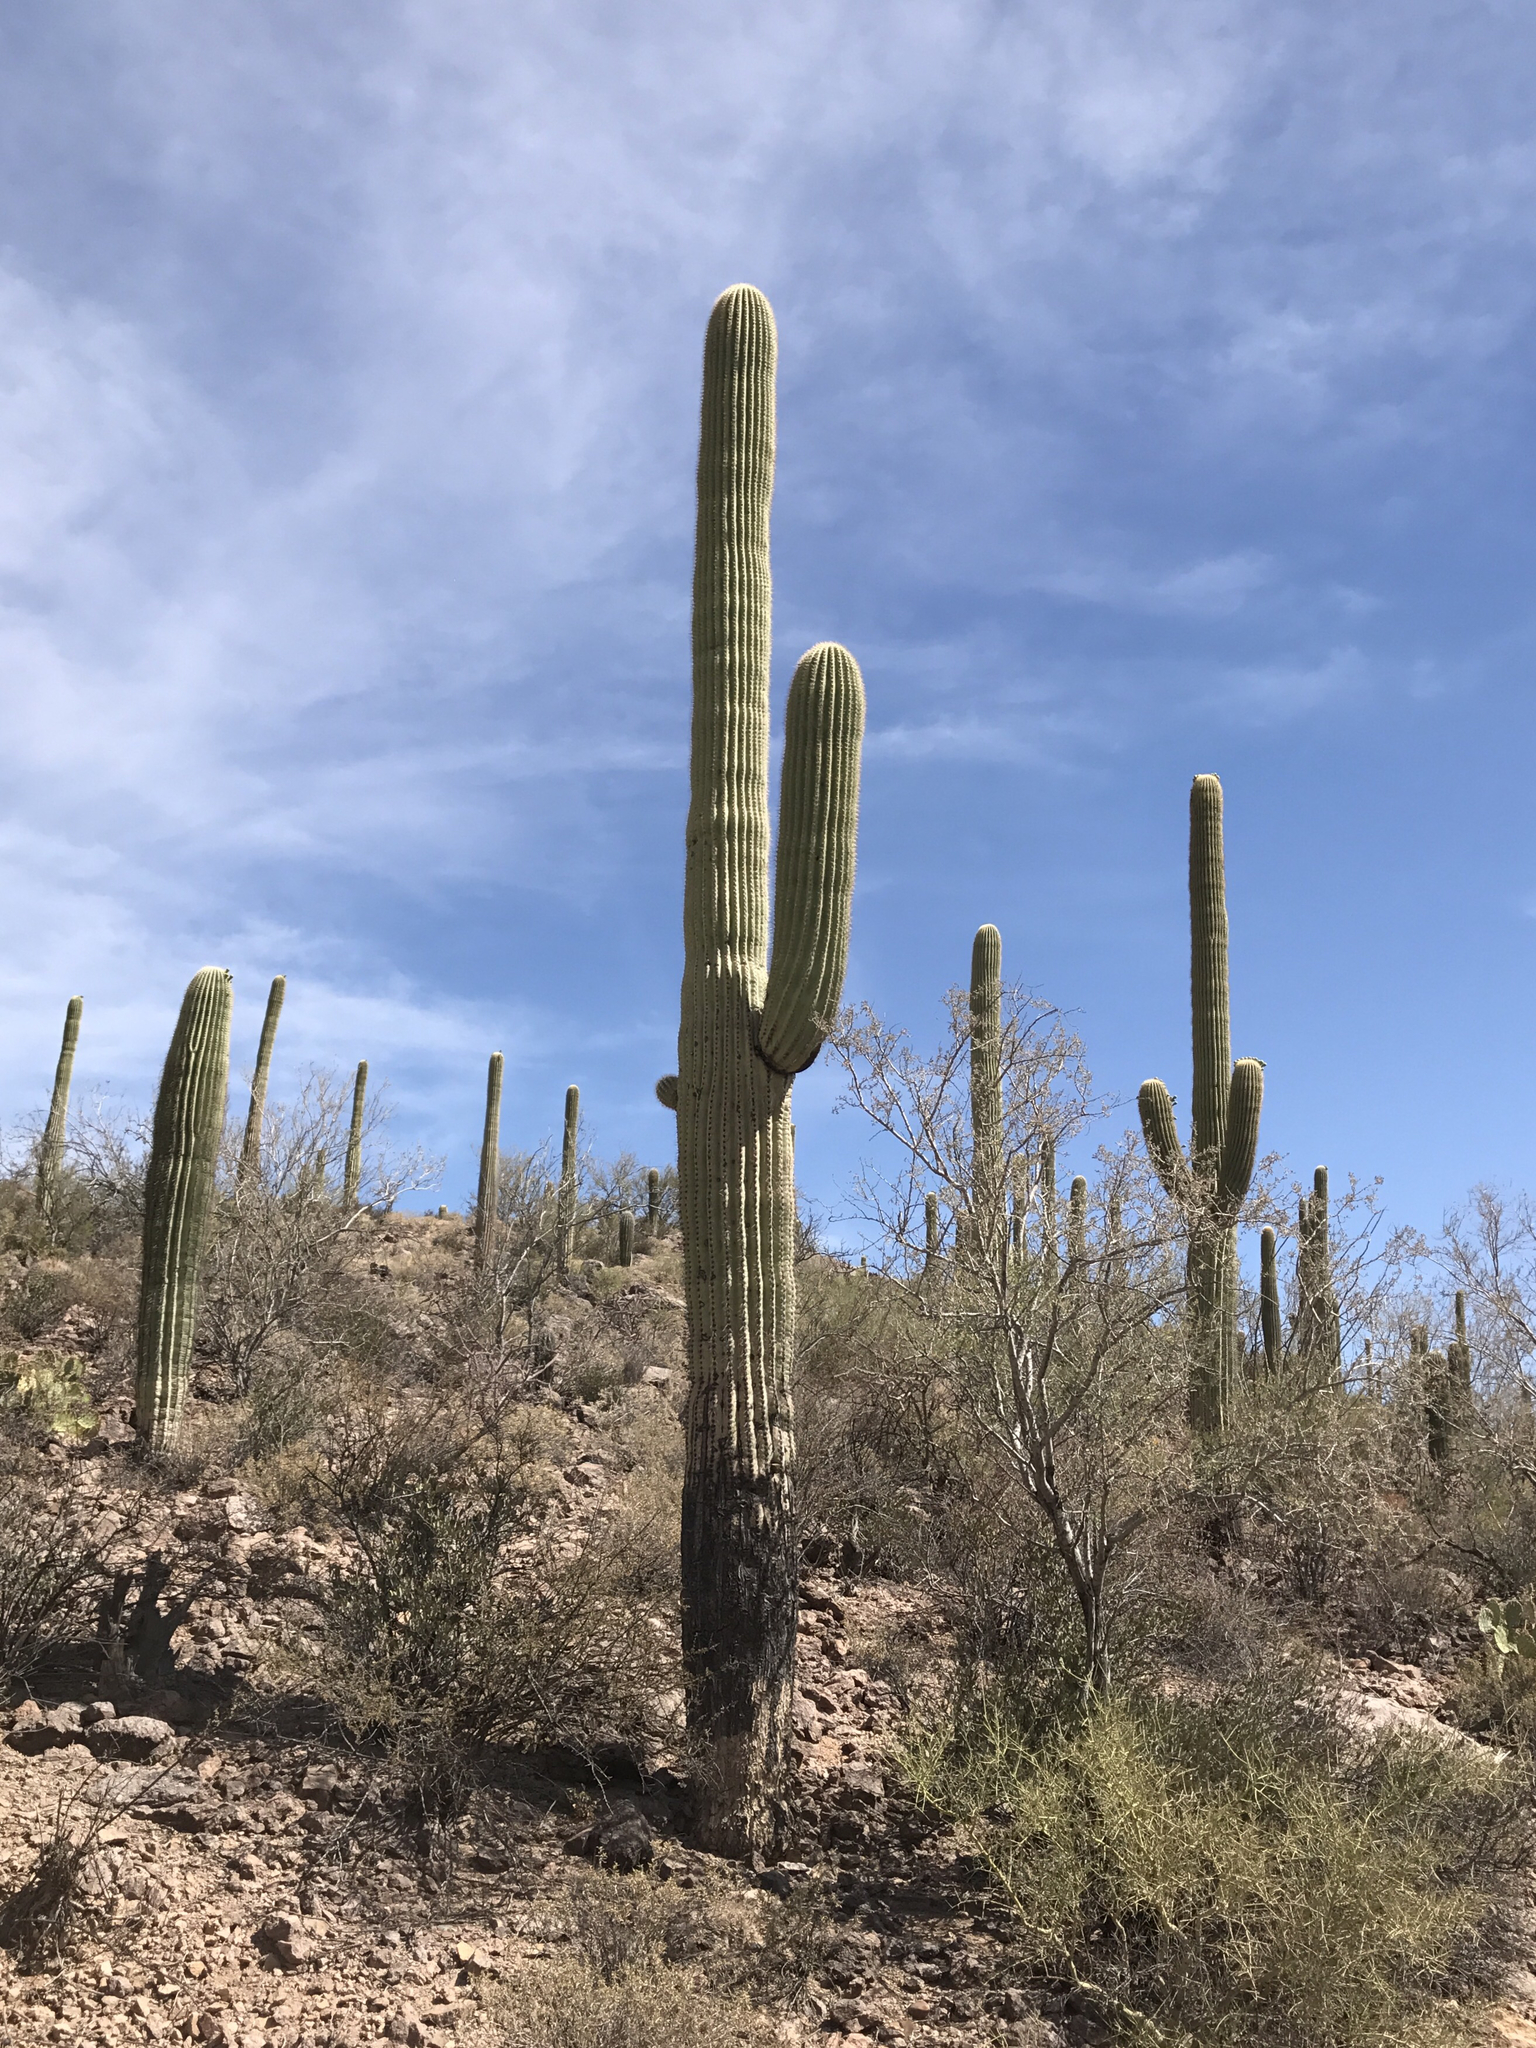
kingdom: Plantae
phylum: Tracheophyta
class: Magnoliopsida
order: Caryophyllales
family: Cactaceae
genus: Carnegiea
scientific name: Carnegiea gigantea
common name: Saguaro
